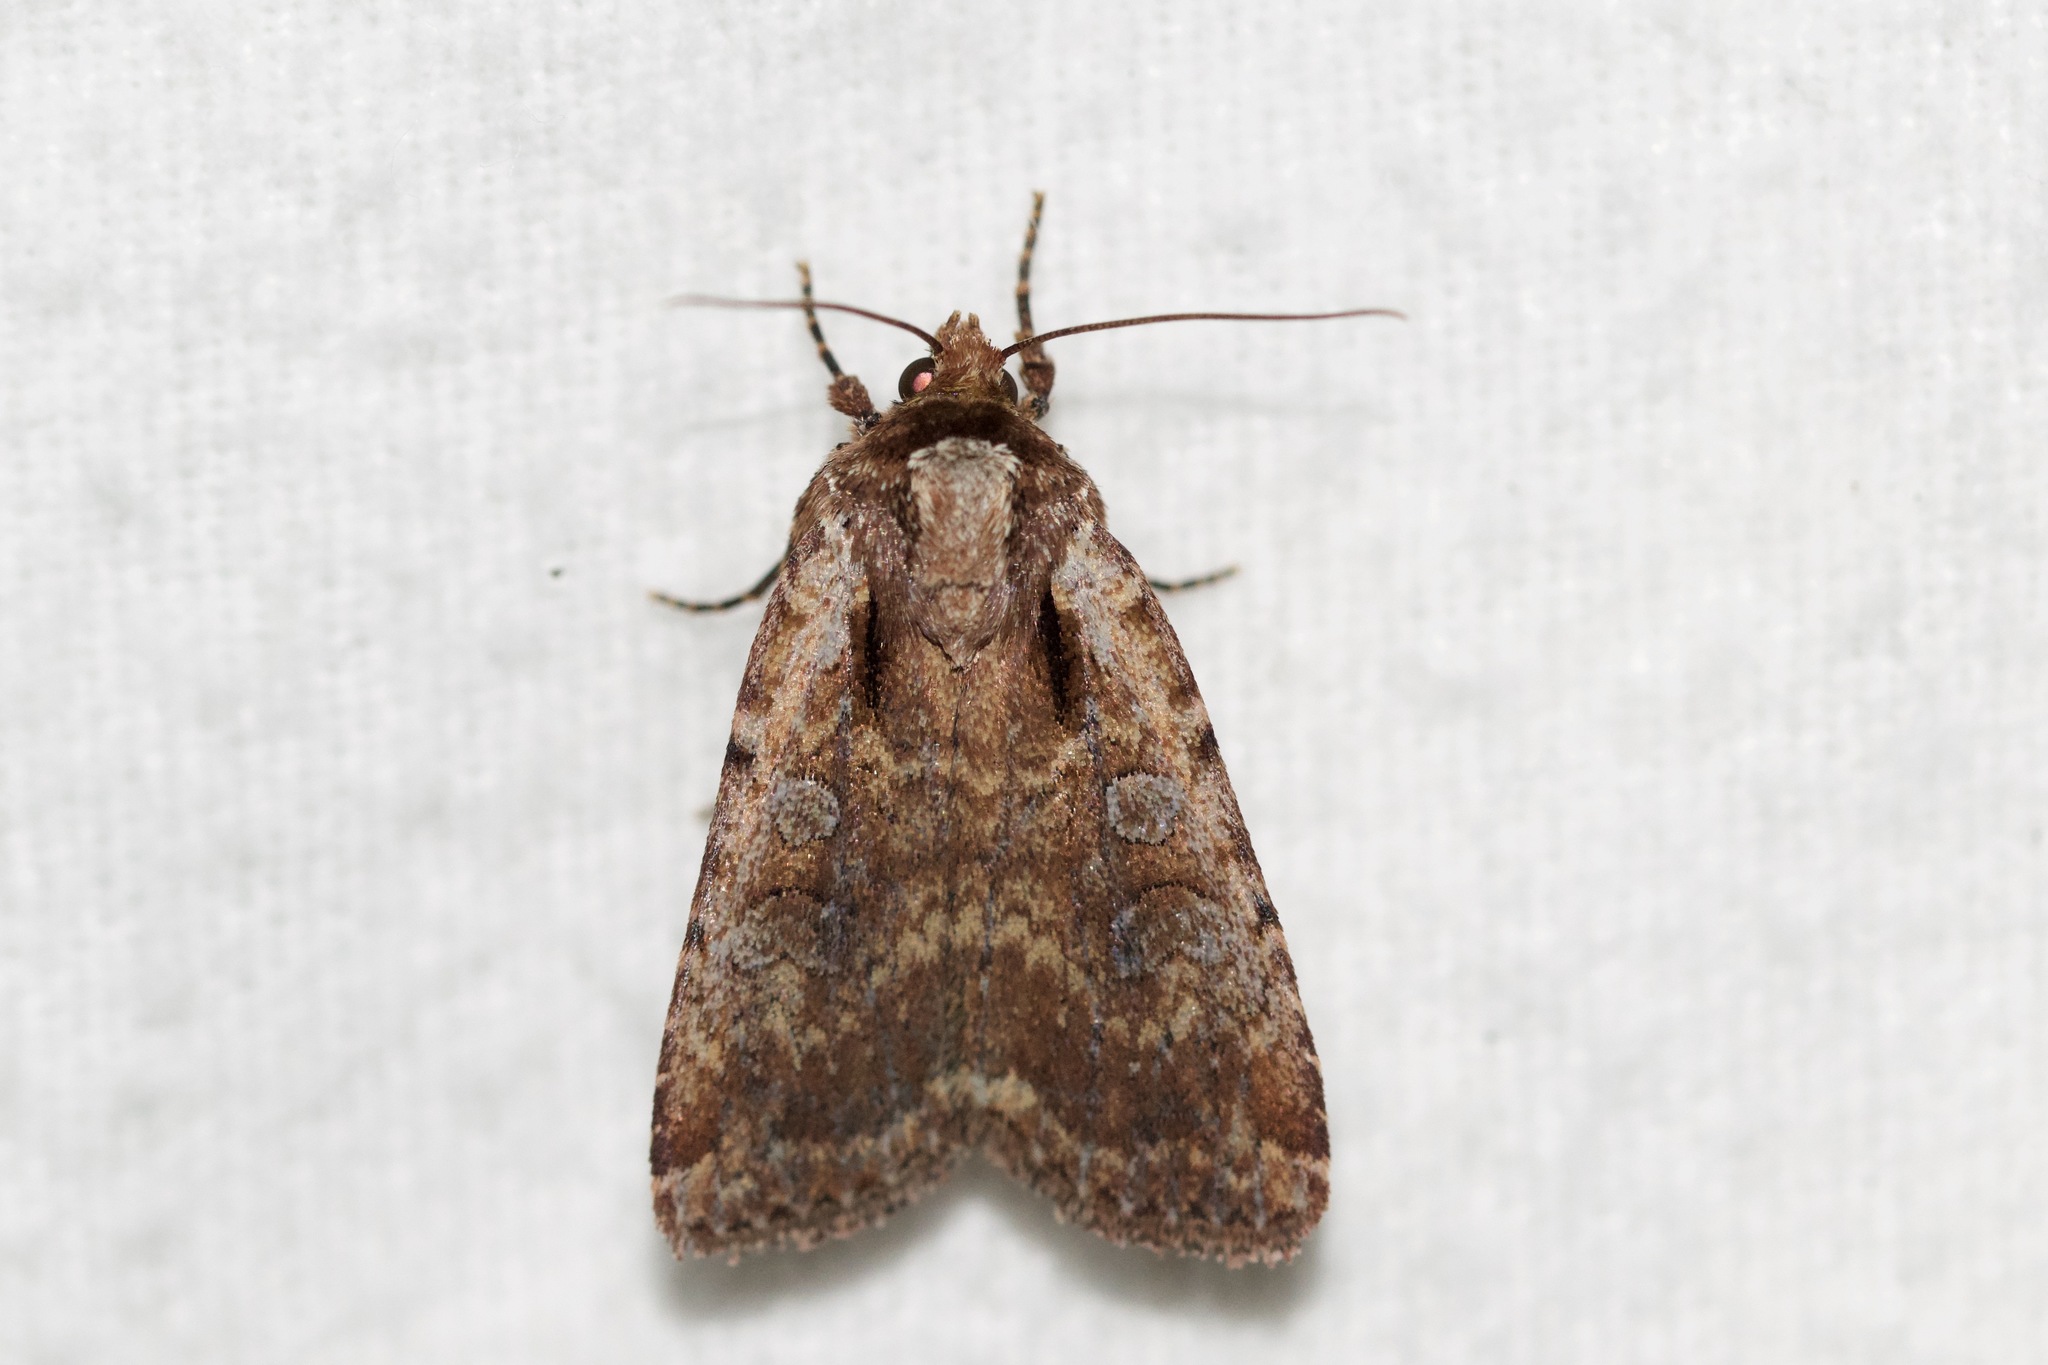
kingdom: Animalia
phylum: Arthropoda
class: Insecta
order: Lepidoptera
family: Noctuidae
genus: Eueretagrotis
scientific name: Eueretagrotis attentus
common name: Attentive dart
